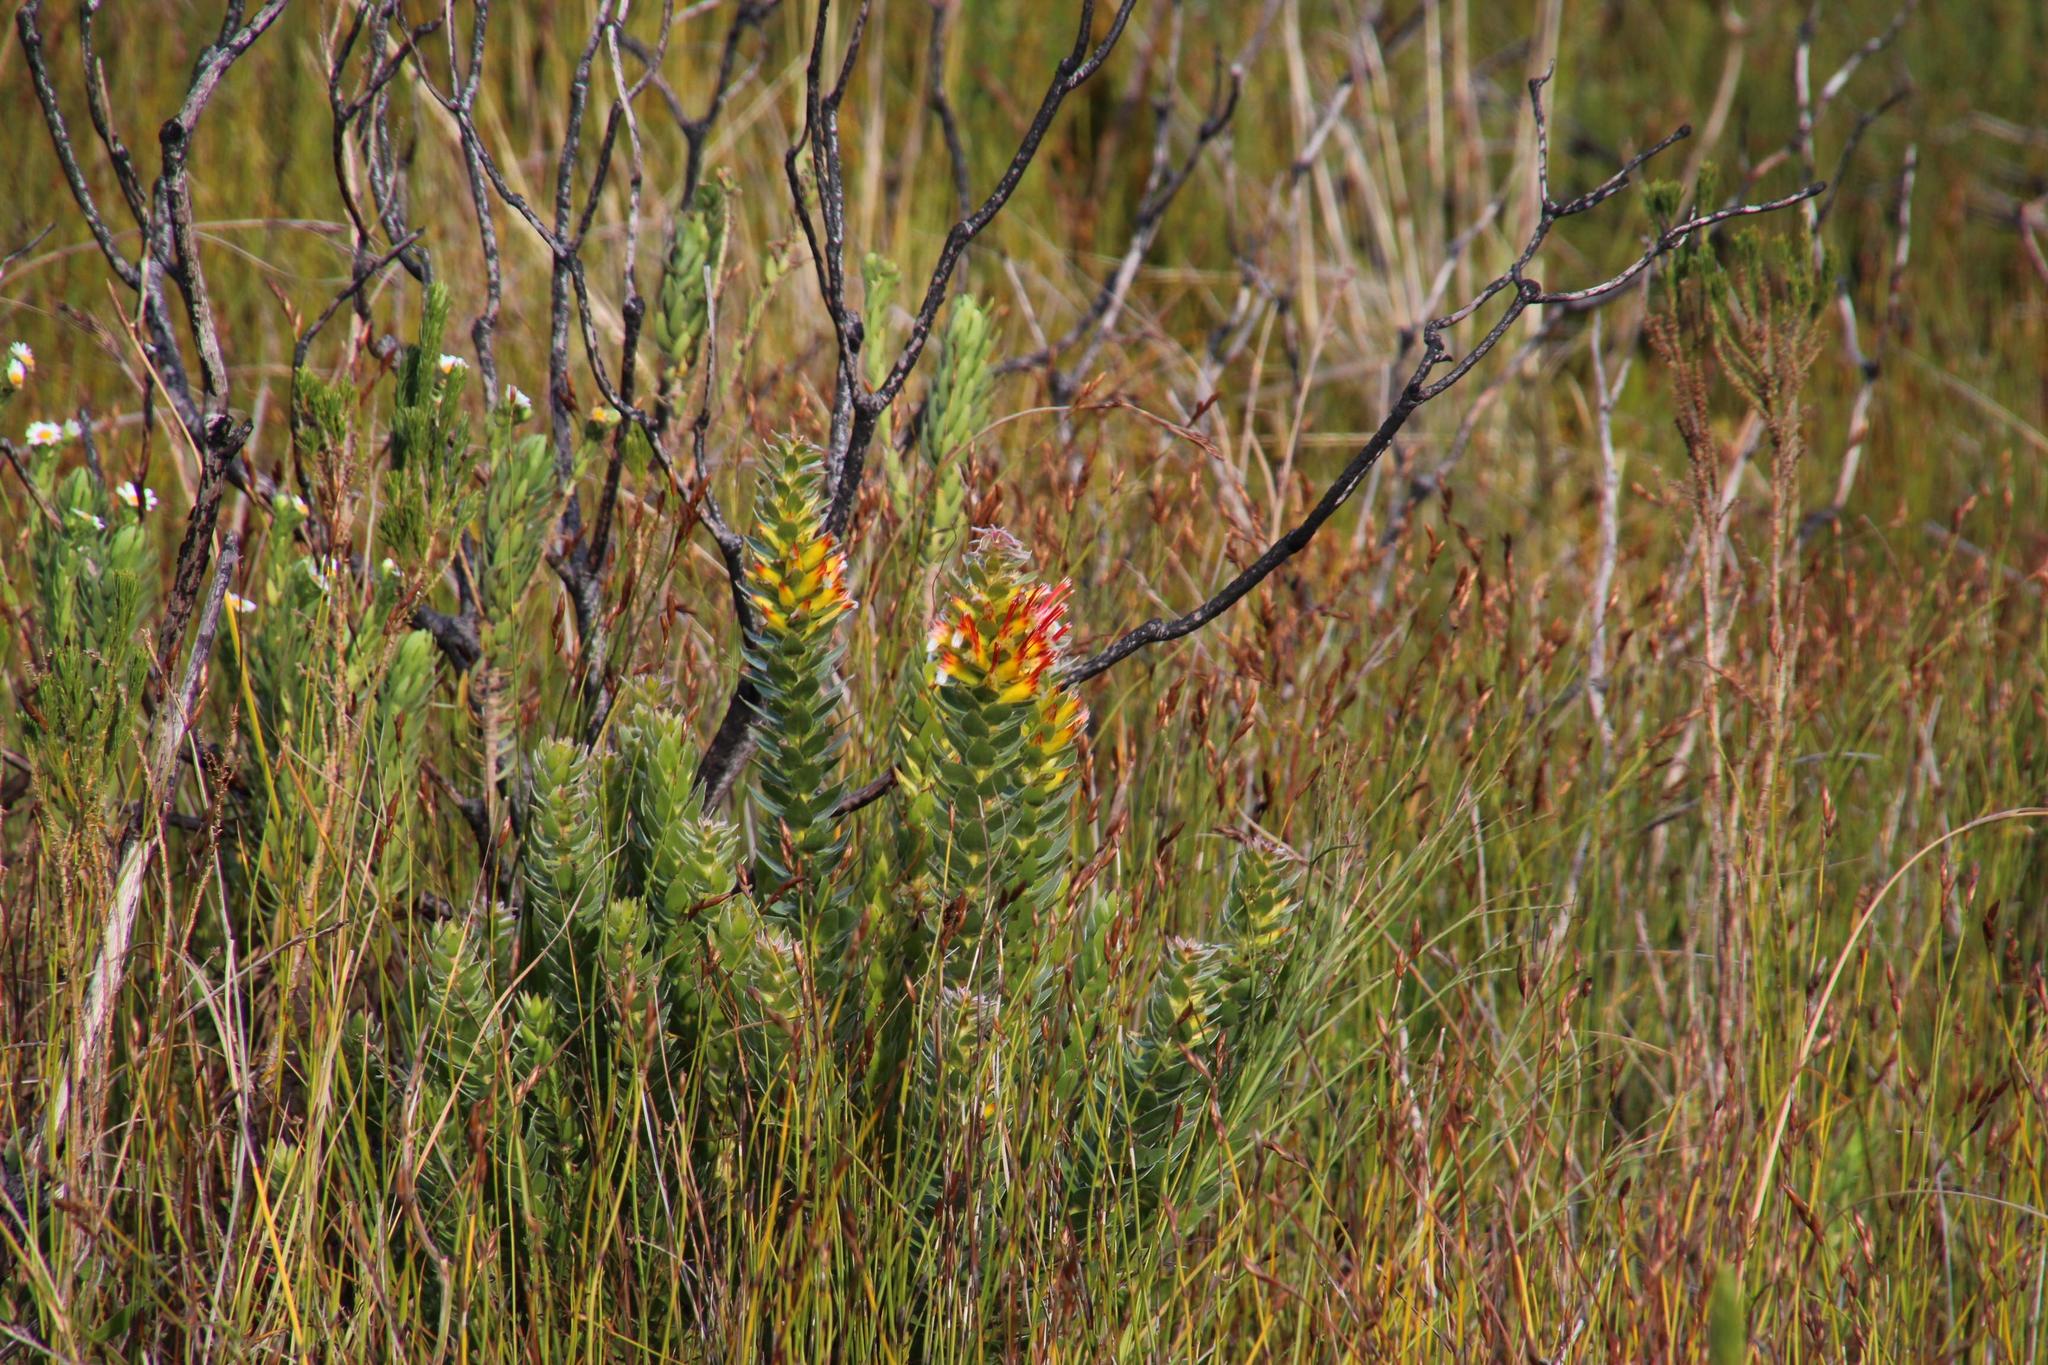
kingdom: Plantae
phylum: Tracheophyta
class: Magnoliopsida
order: Proteales
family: Proteaceae
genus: Mimetes
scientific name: Mimetes hirtus
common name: Marsh pagoda
